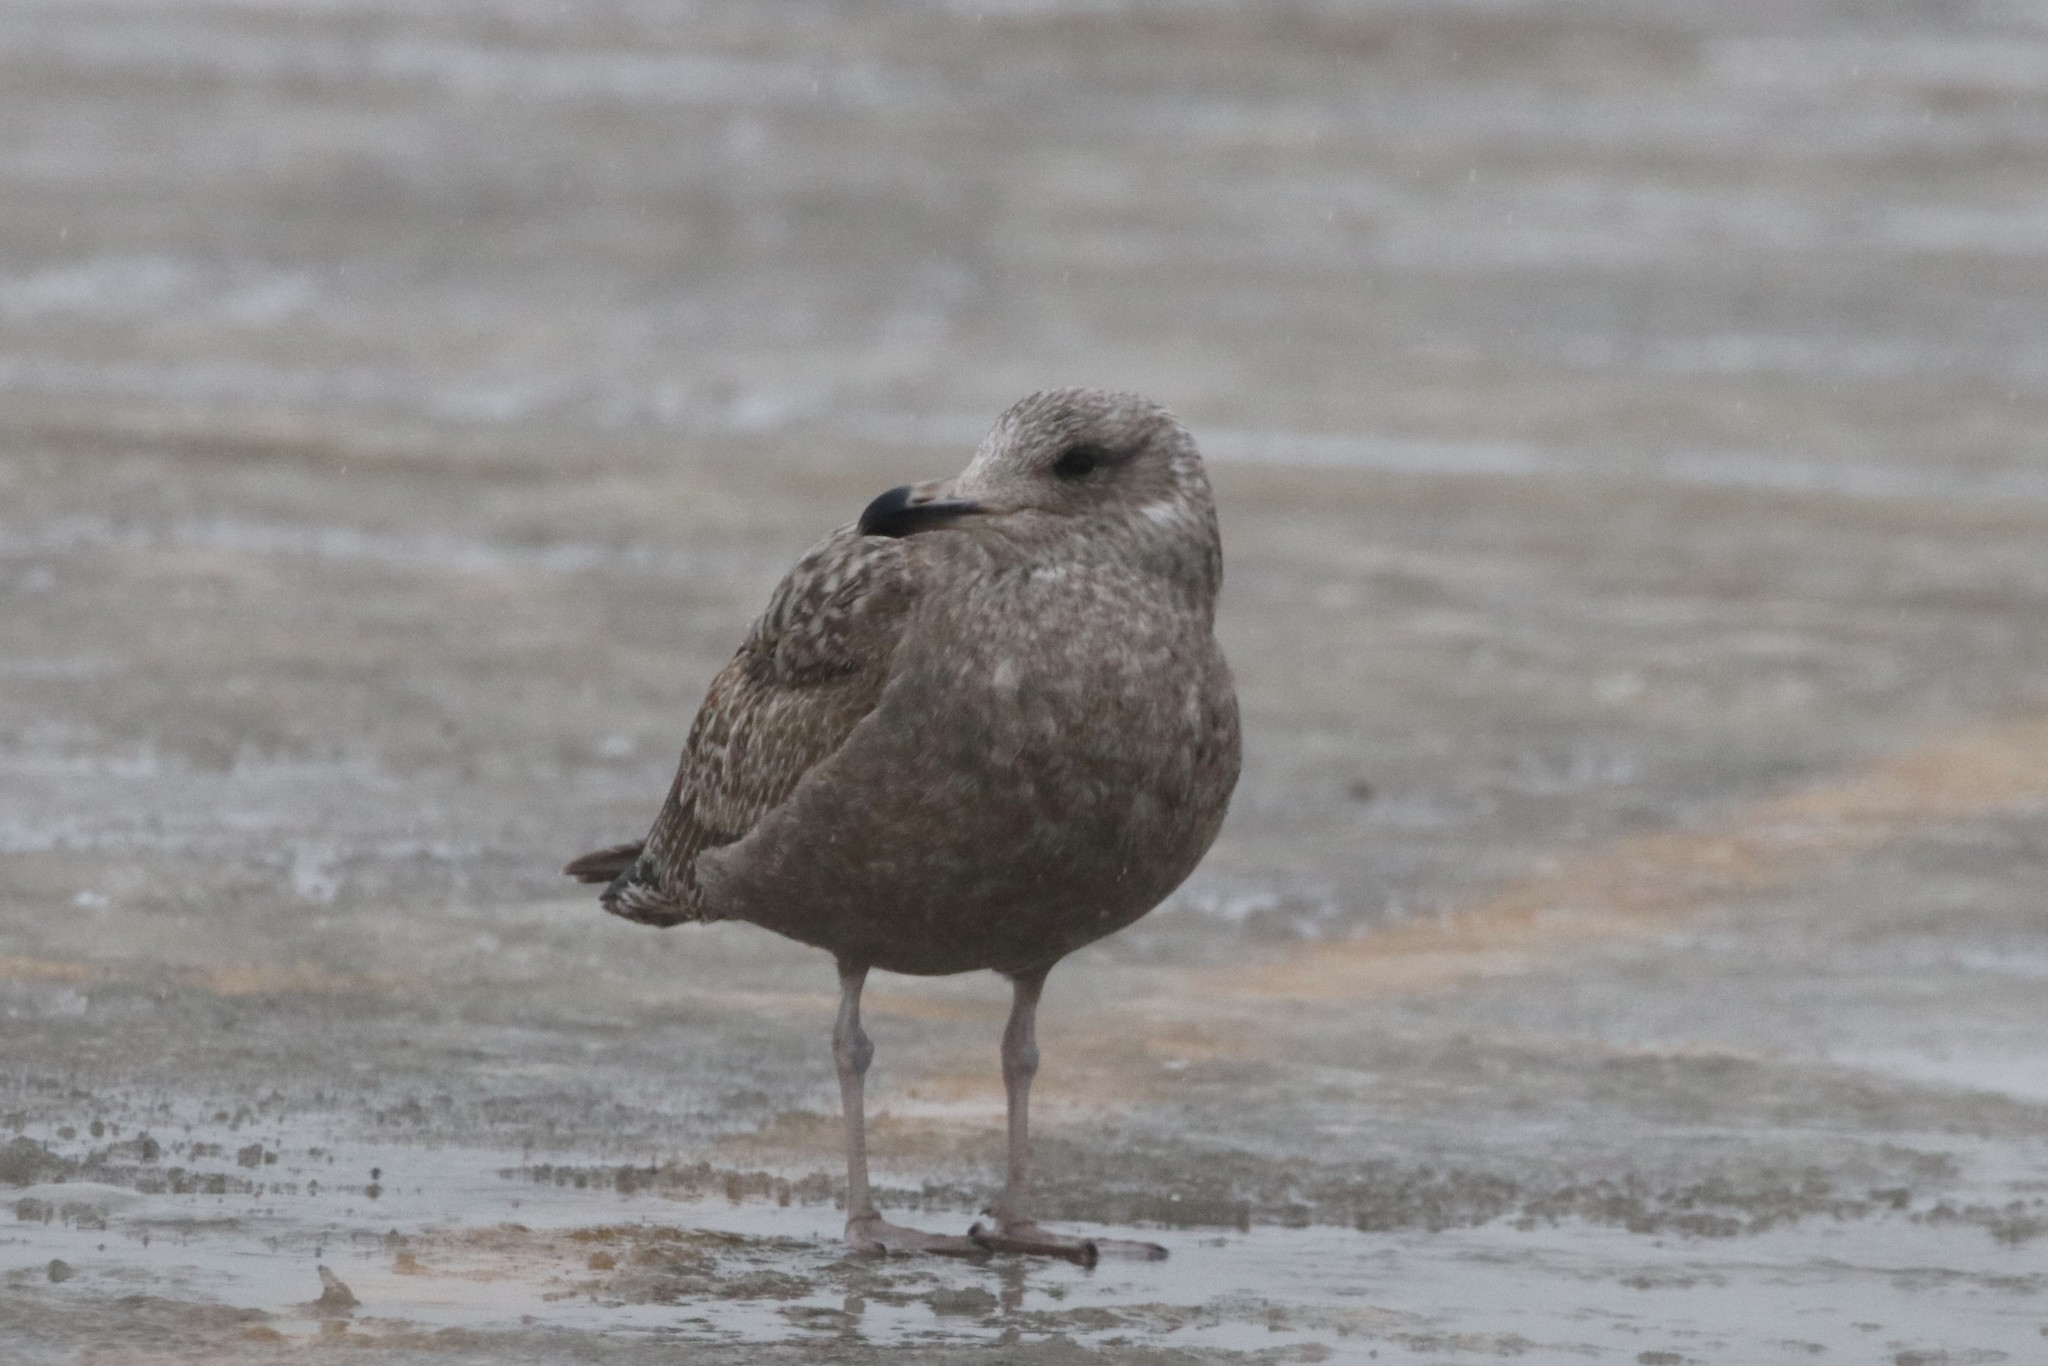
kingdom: Animalia
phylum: Chordata
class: Aves
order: Charadriiformes
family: Laridae
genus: Larus
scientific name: Larus argentatus
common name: Herring gull
